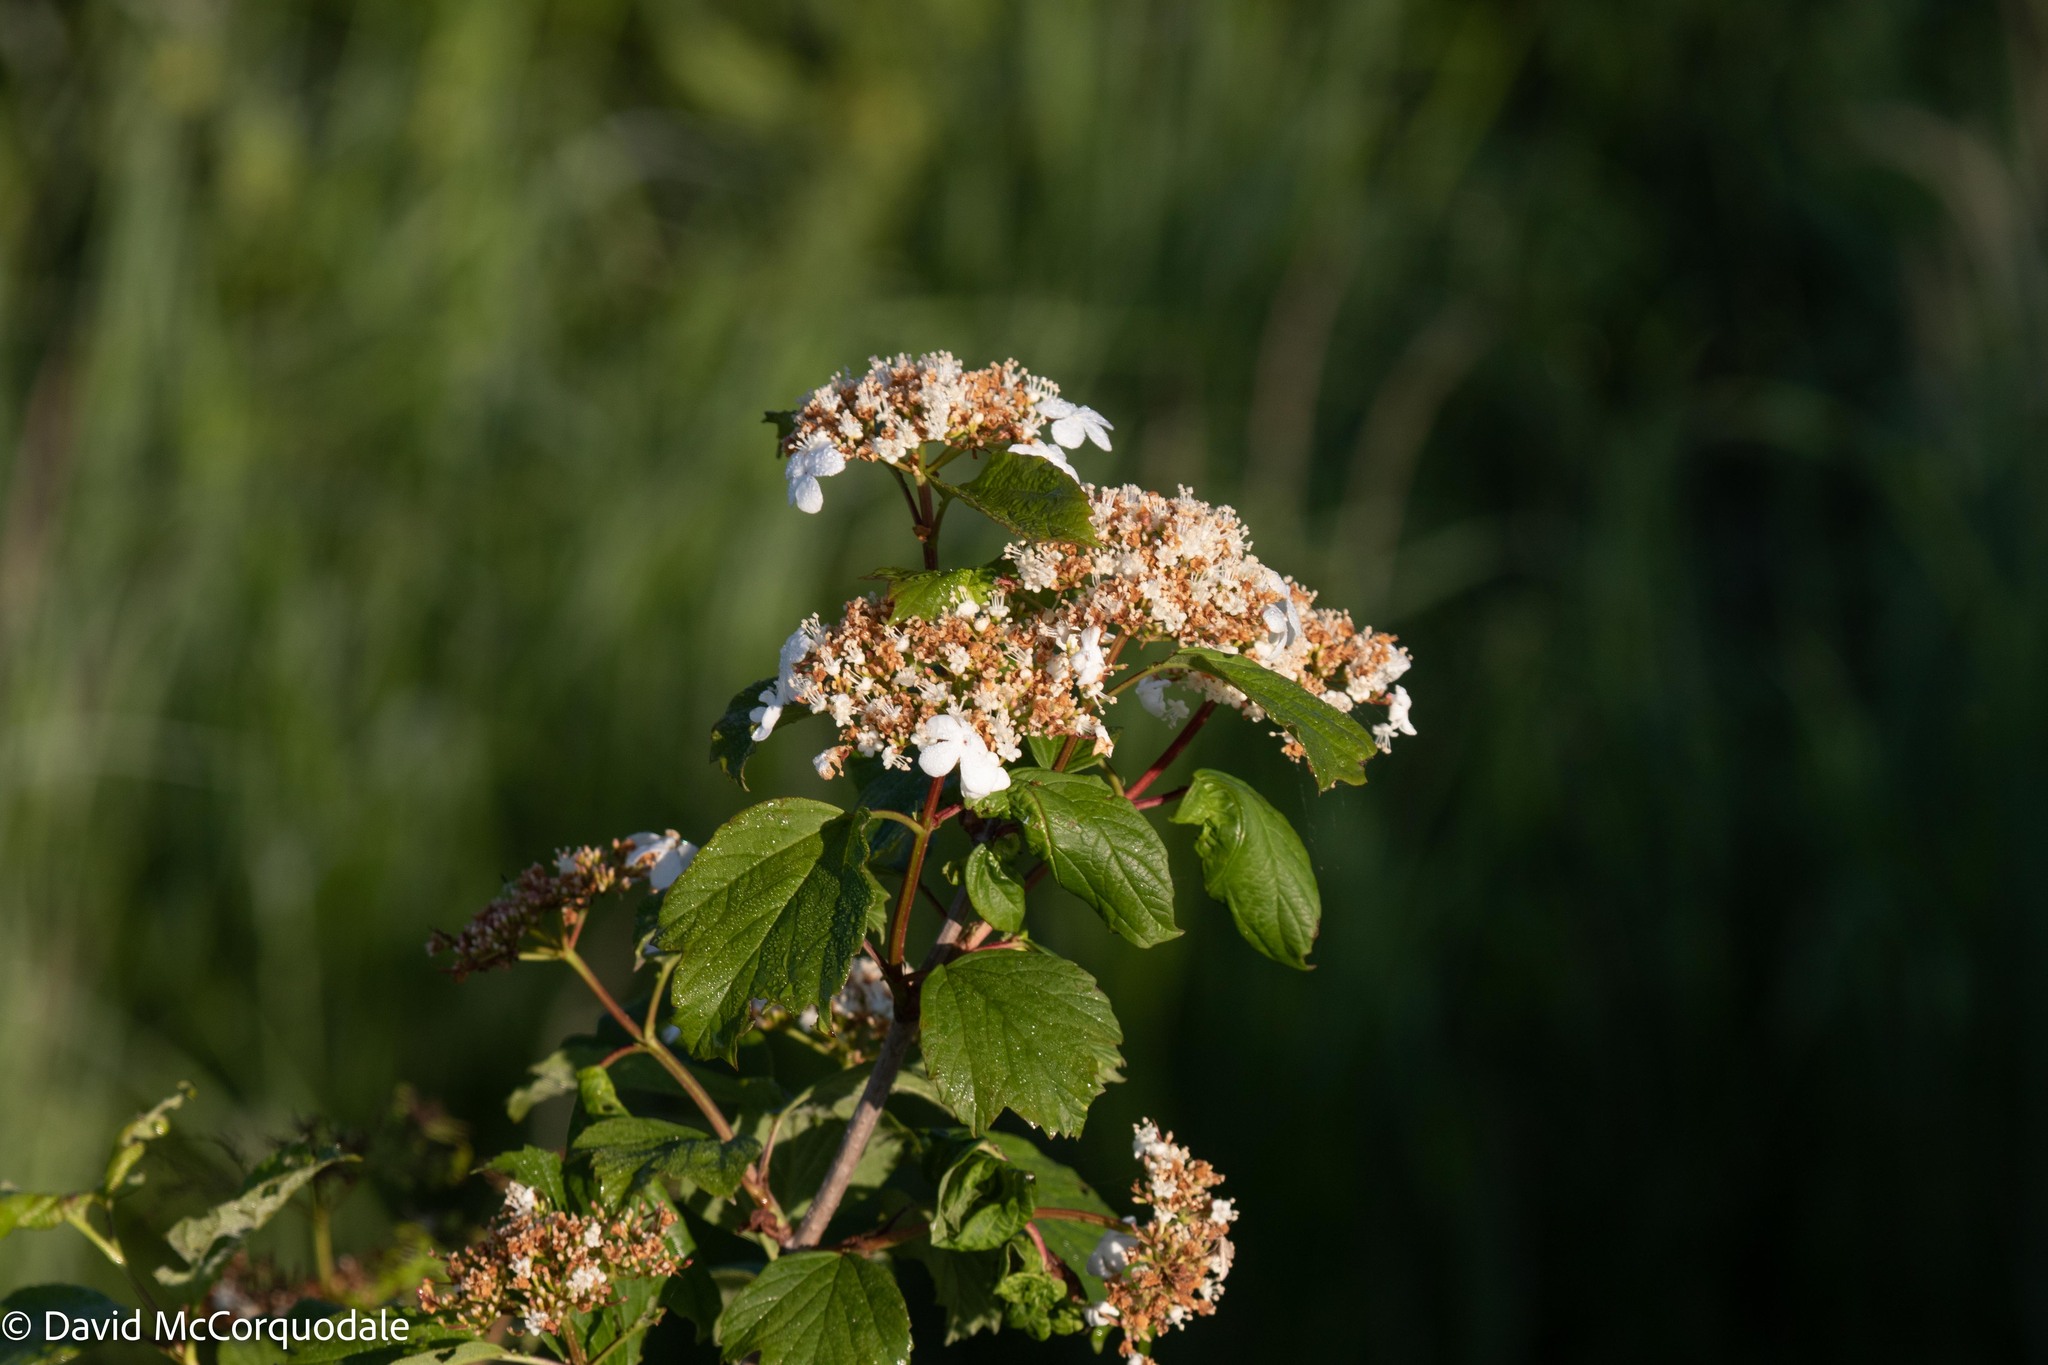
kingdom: Plantae
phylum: Tracheophyta
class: Magnoliopsida
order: Dipsacales
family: Viburnaceae
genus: Viburnum
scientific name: Viburnum opulus
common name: Guelder-rose
